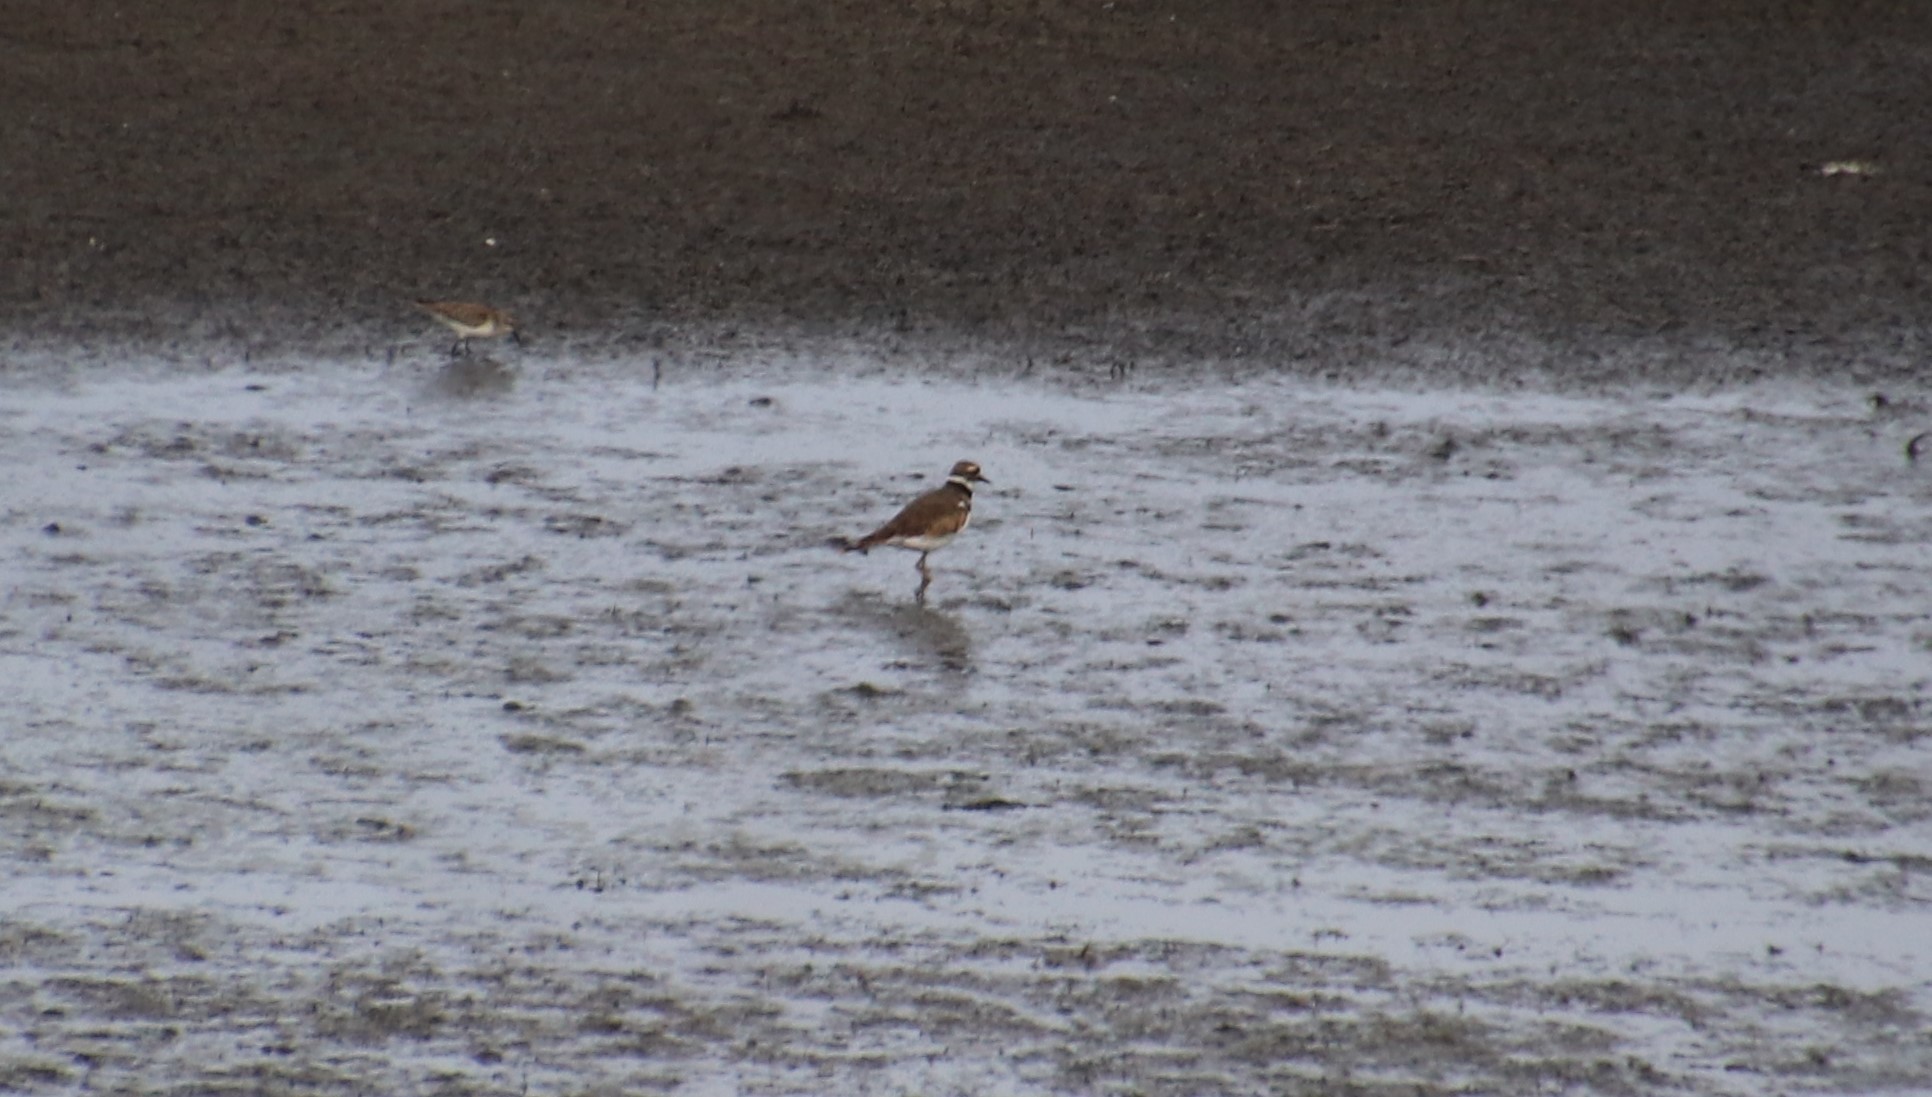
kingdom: Animalia
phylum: Chordata
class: Aves
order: Charadriiformes
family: Charadriidae
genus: Charadrius
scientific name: Charadrius vociferus
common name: Killdeer
